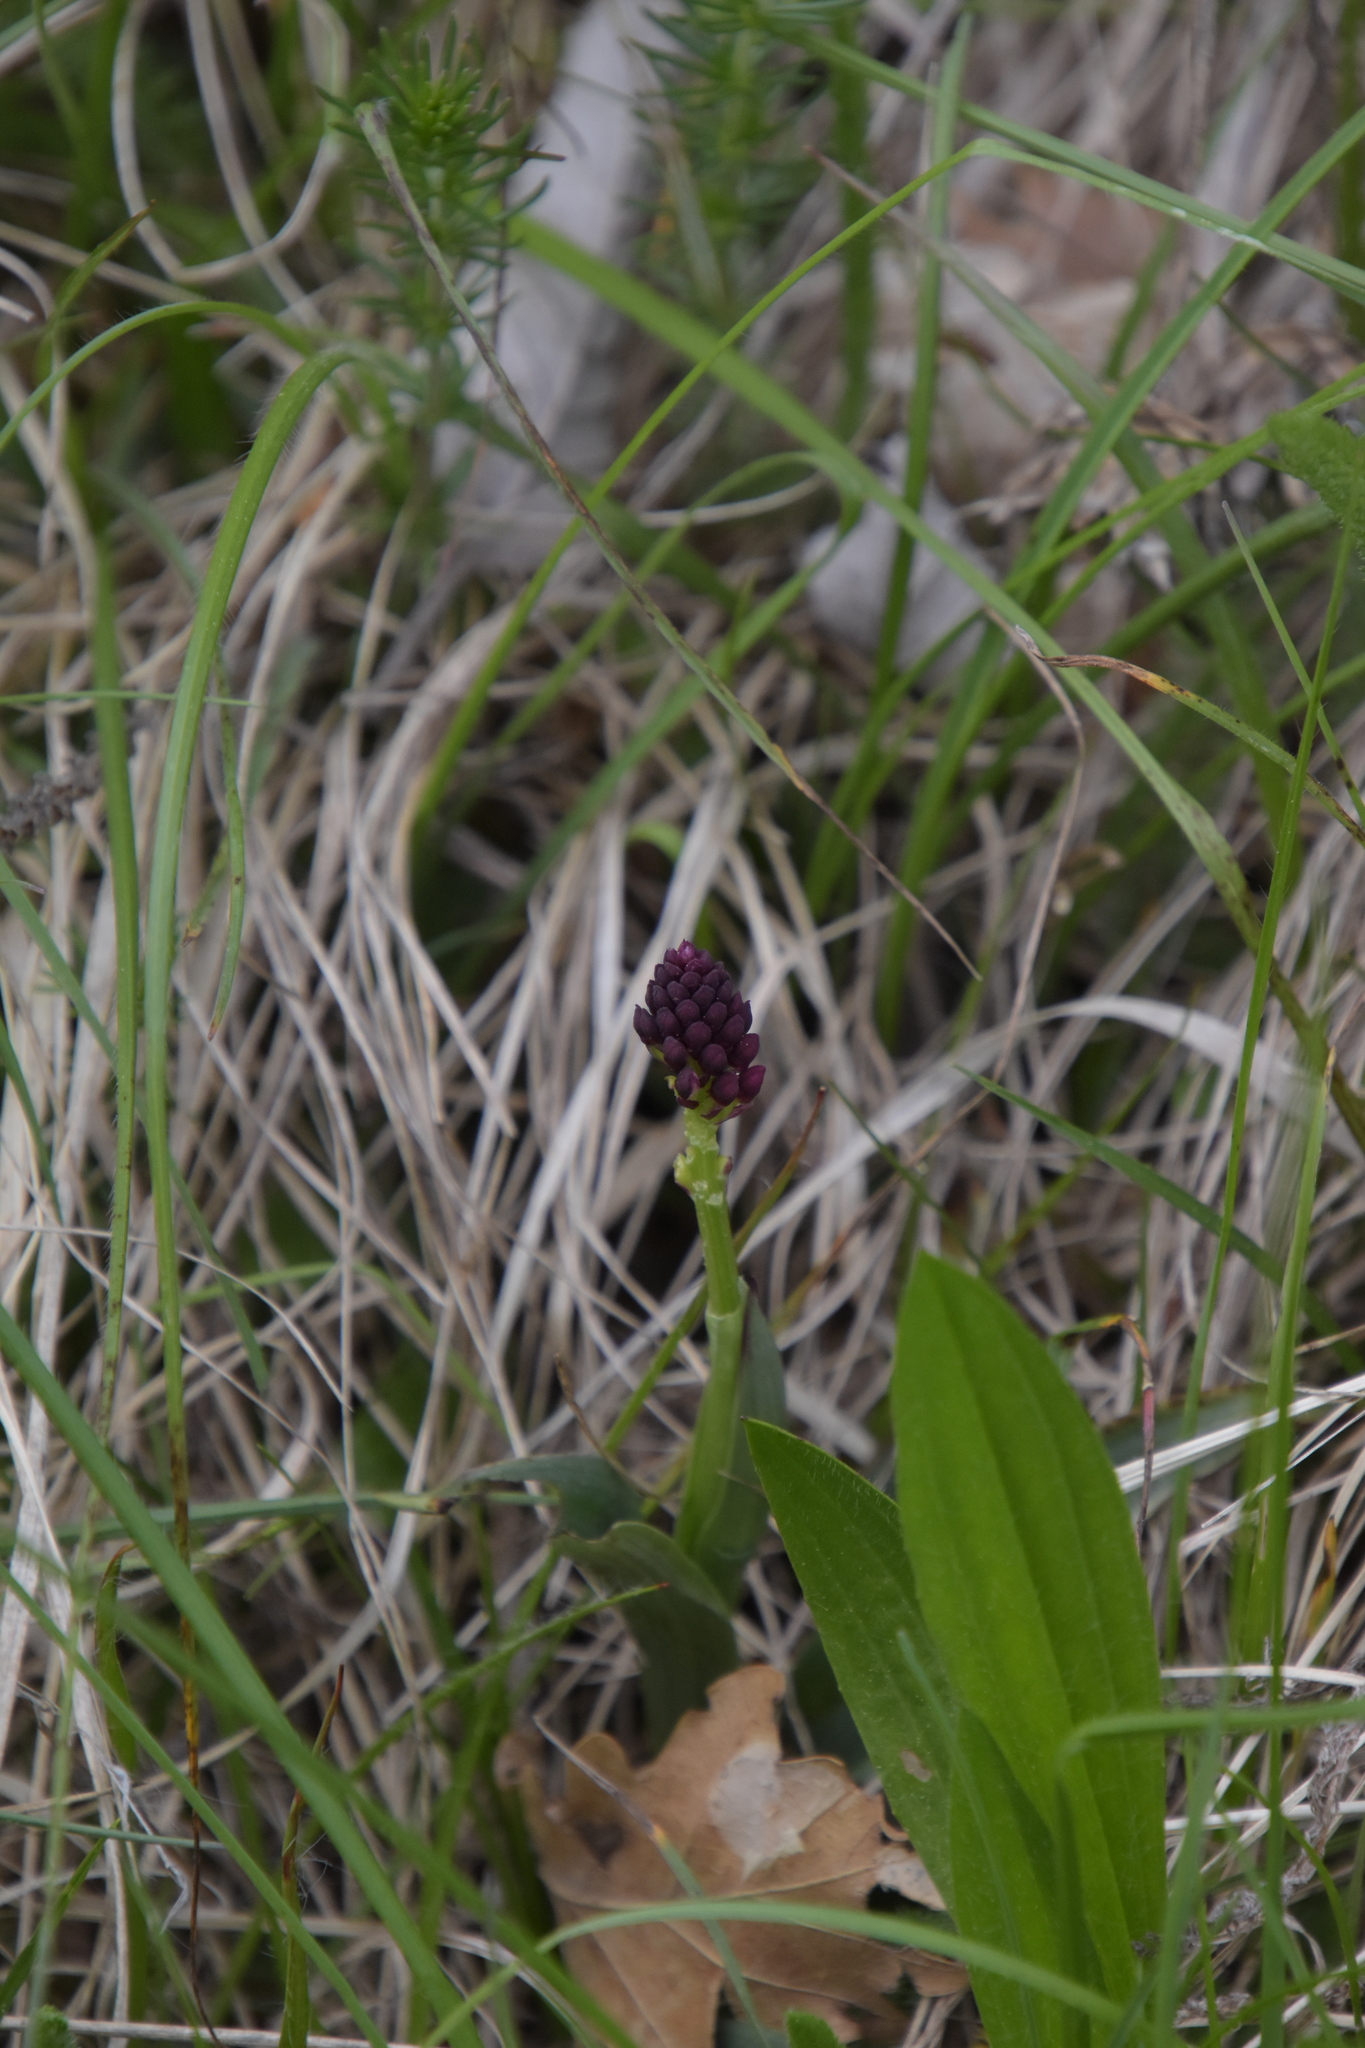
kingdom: Plantae
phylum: Tracheophyta
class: Liliopsida
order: Asparagales
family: Orchidaceae
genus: Neotinea
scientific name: Neotinea ustulata
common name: Burnt orchid
